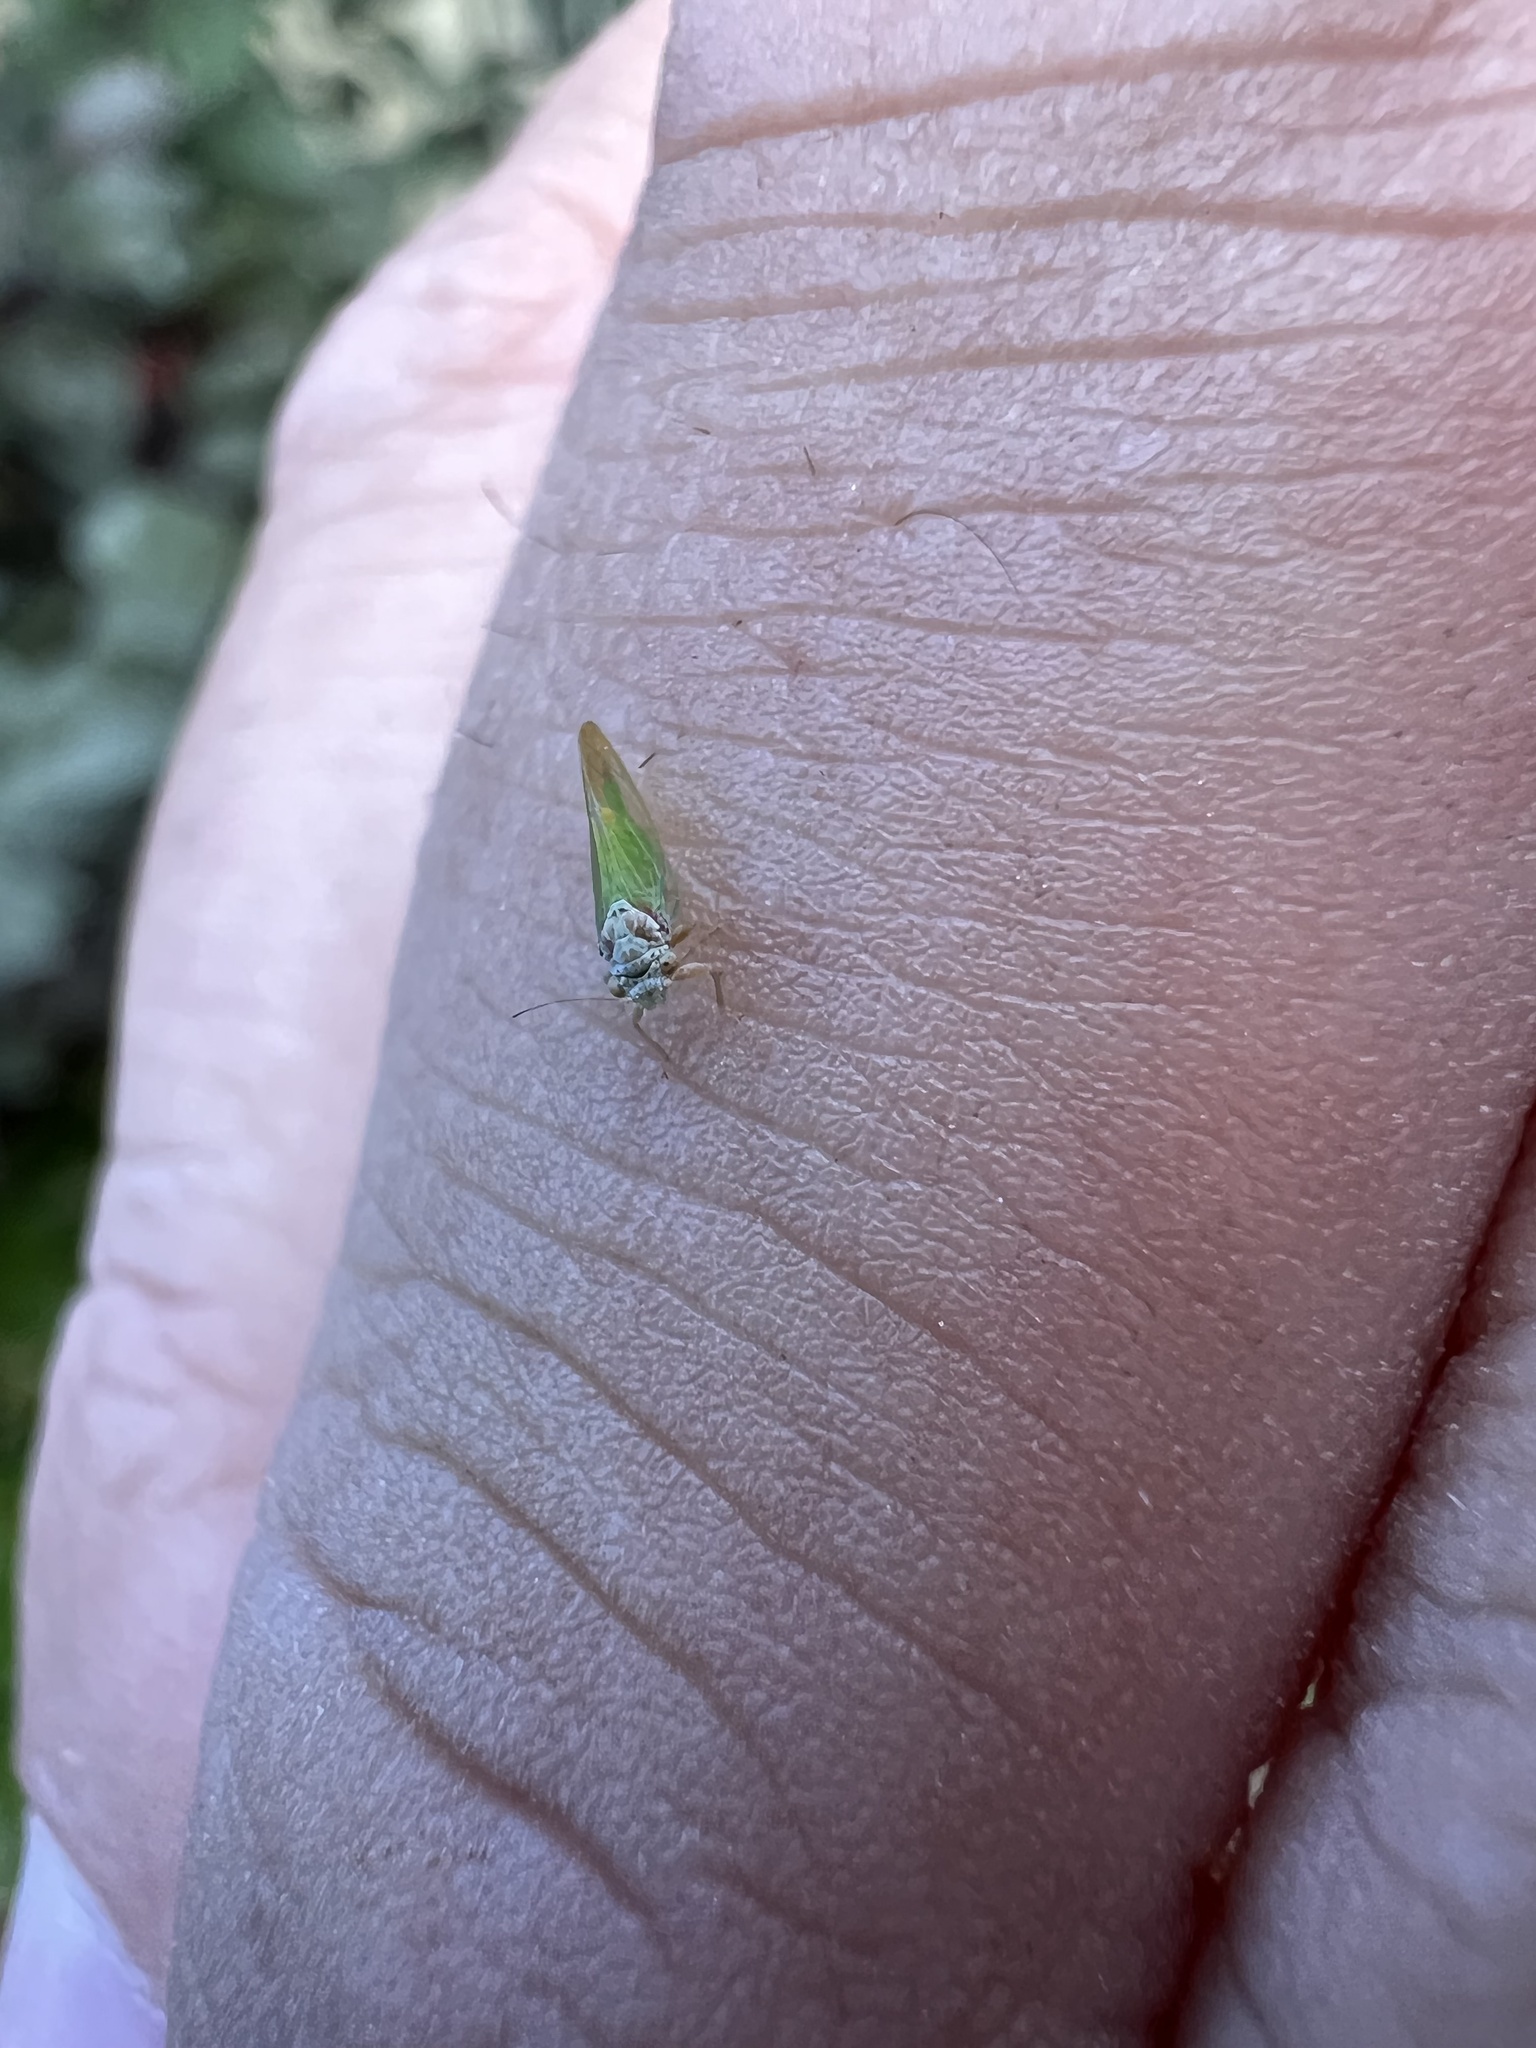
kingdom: Animalia
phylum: Arthropoda
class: Insecta
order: Hemiptera
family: Psyllidae
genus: Psylla
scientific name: Psylla buxi
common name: Boxwood psyllid
